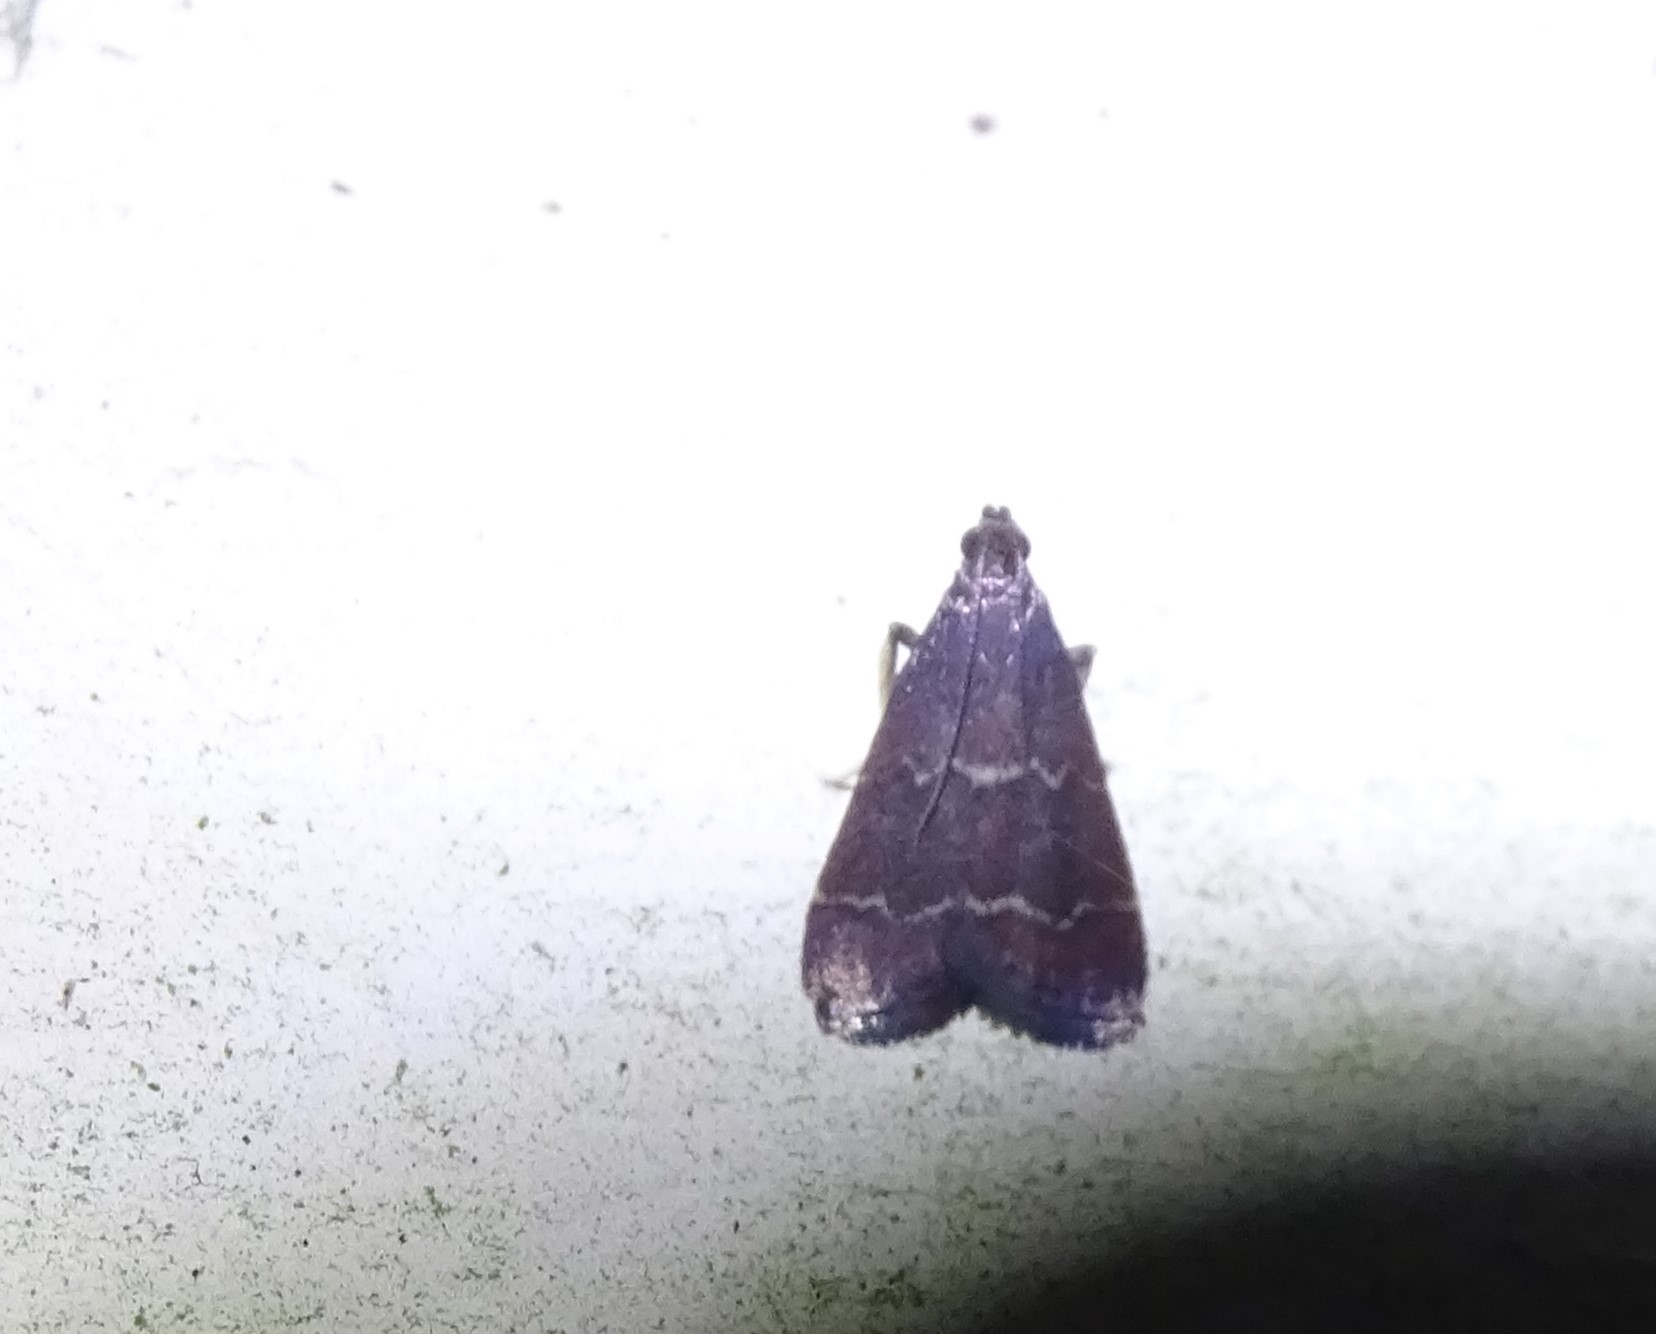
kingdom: Animalia
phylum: Arthropoda
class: Insecta
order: Lepidoptera
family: Pyralidae
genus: Arta
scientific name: Arta
